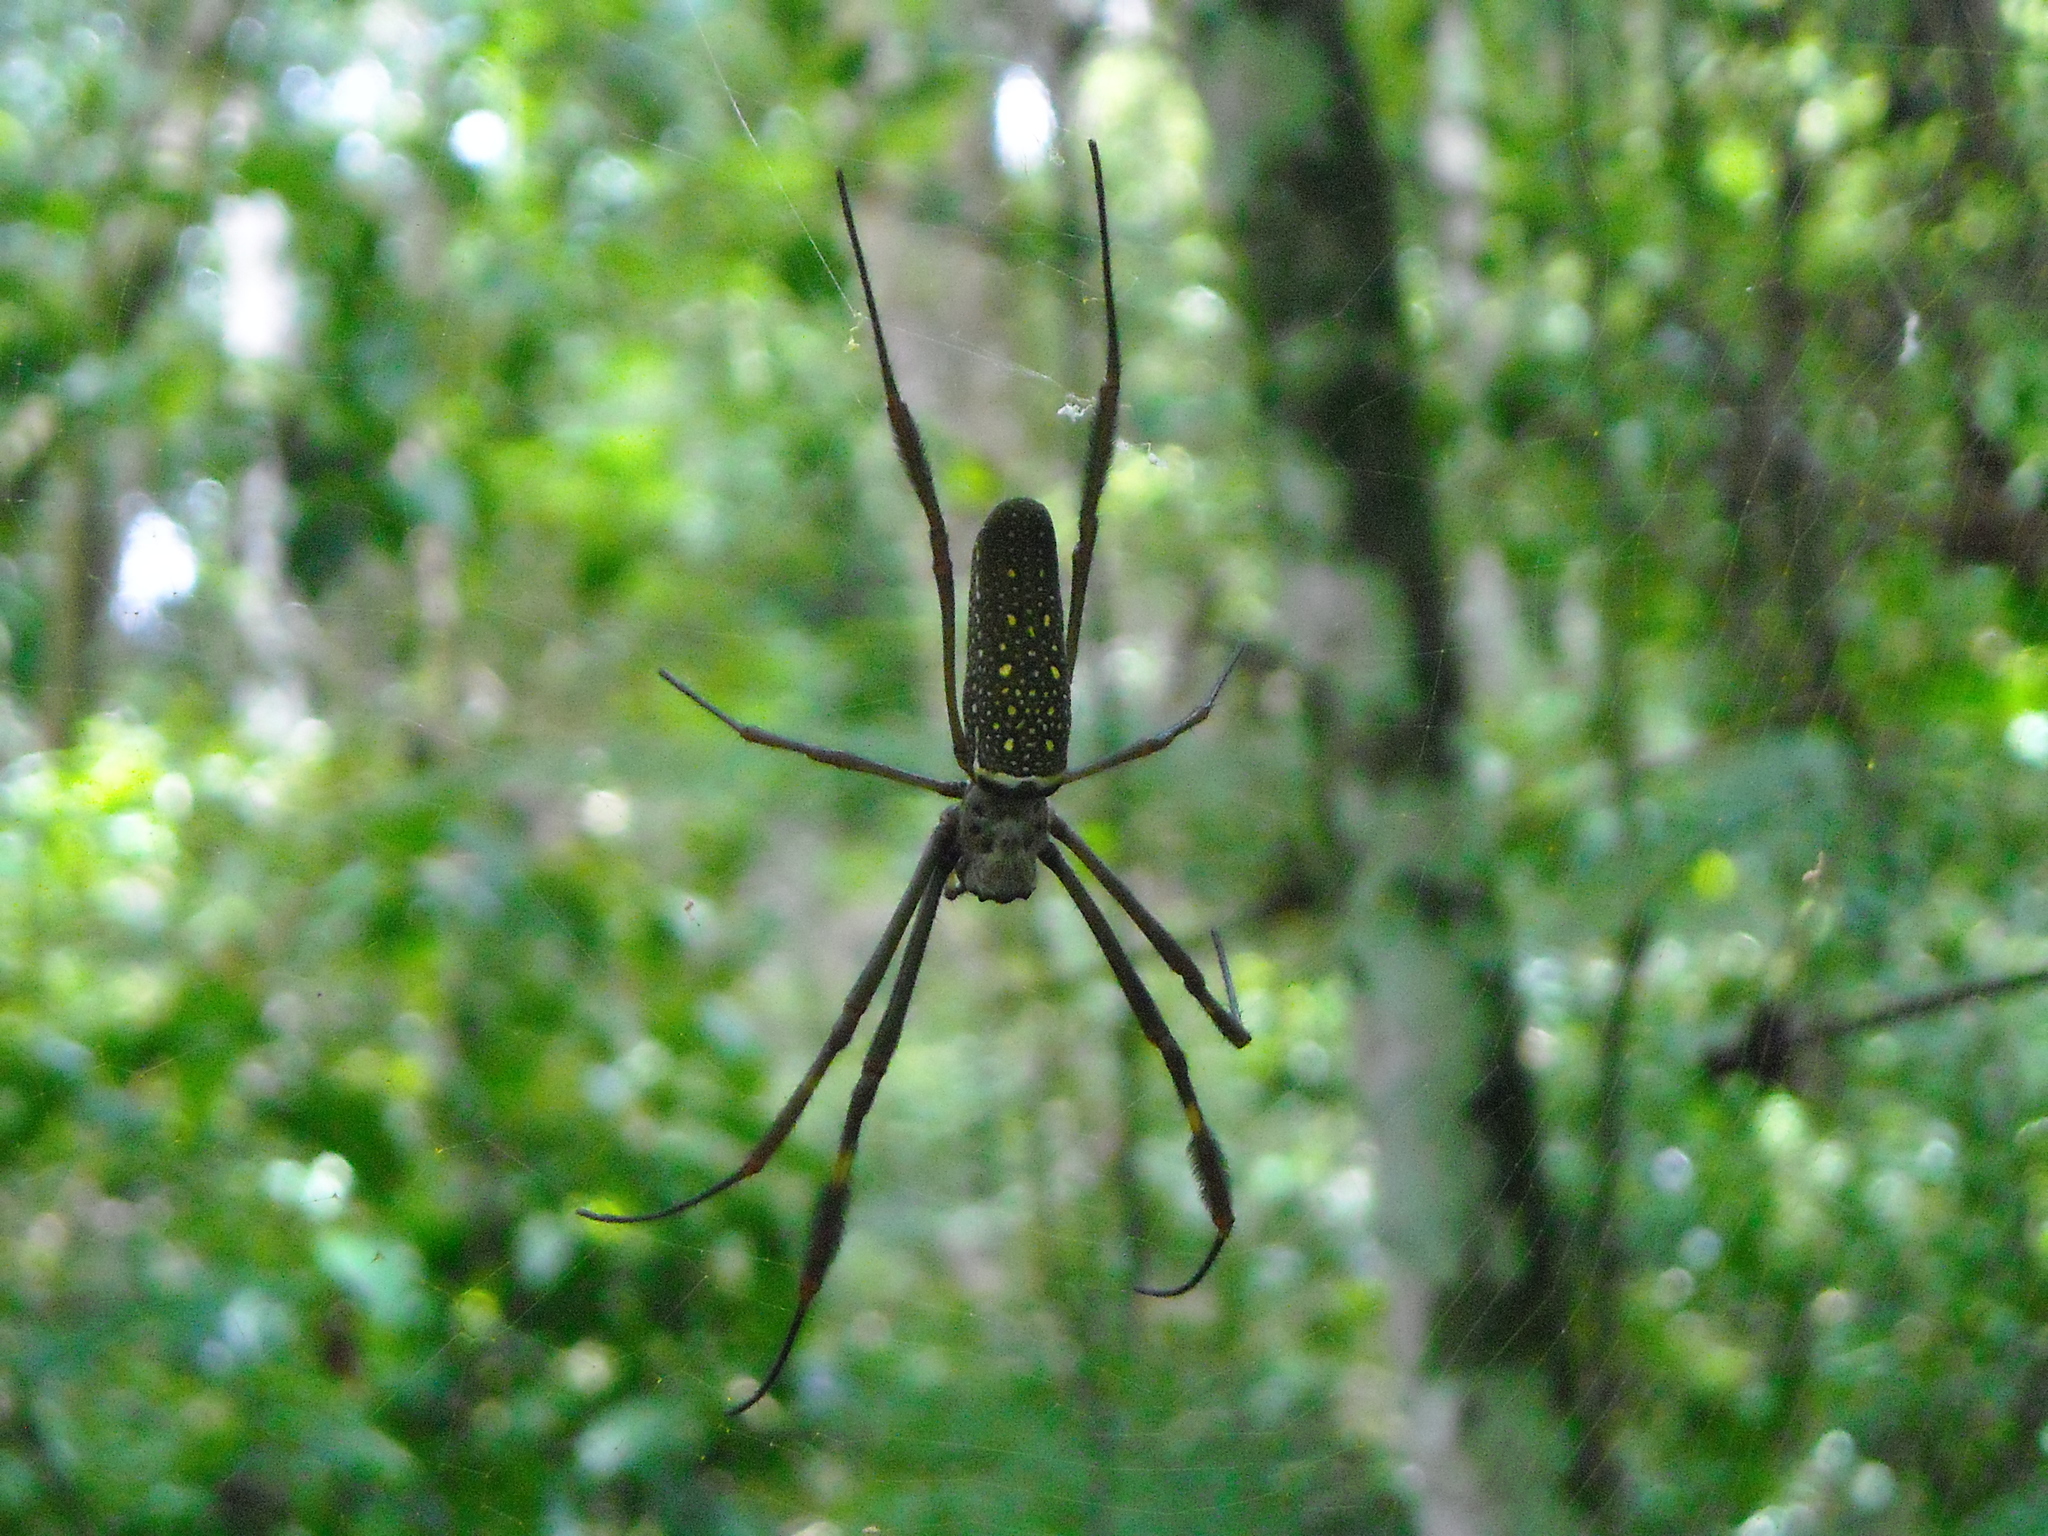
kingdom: Animalia
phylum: Arthropoda
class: Arachnida
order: Araneae
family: Araneidae
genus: Trichonephila
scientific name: Trichonephila clavipes
